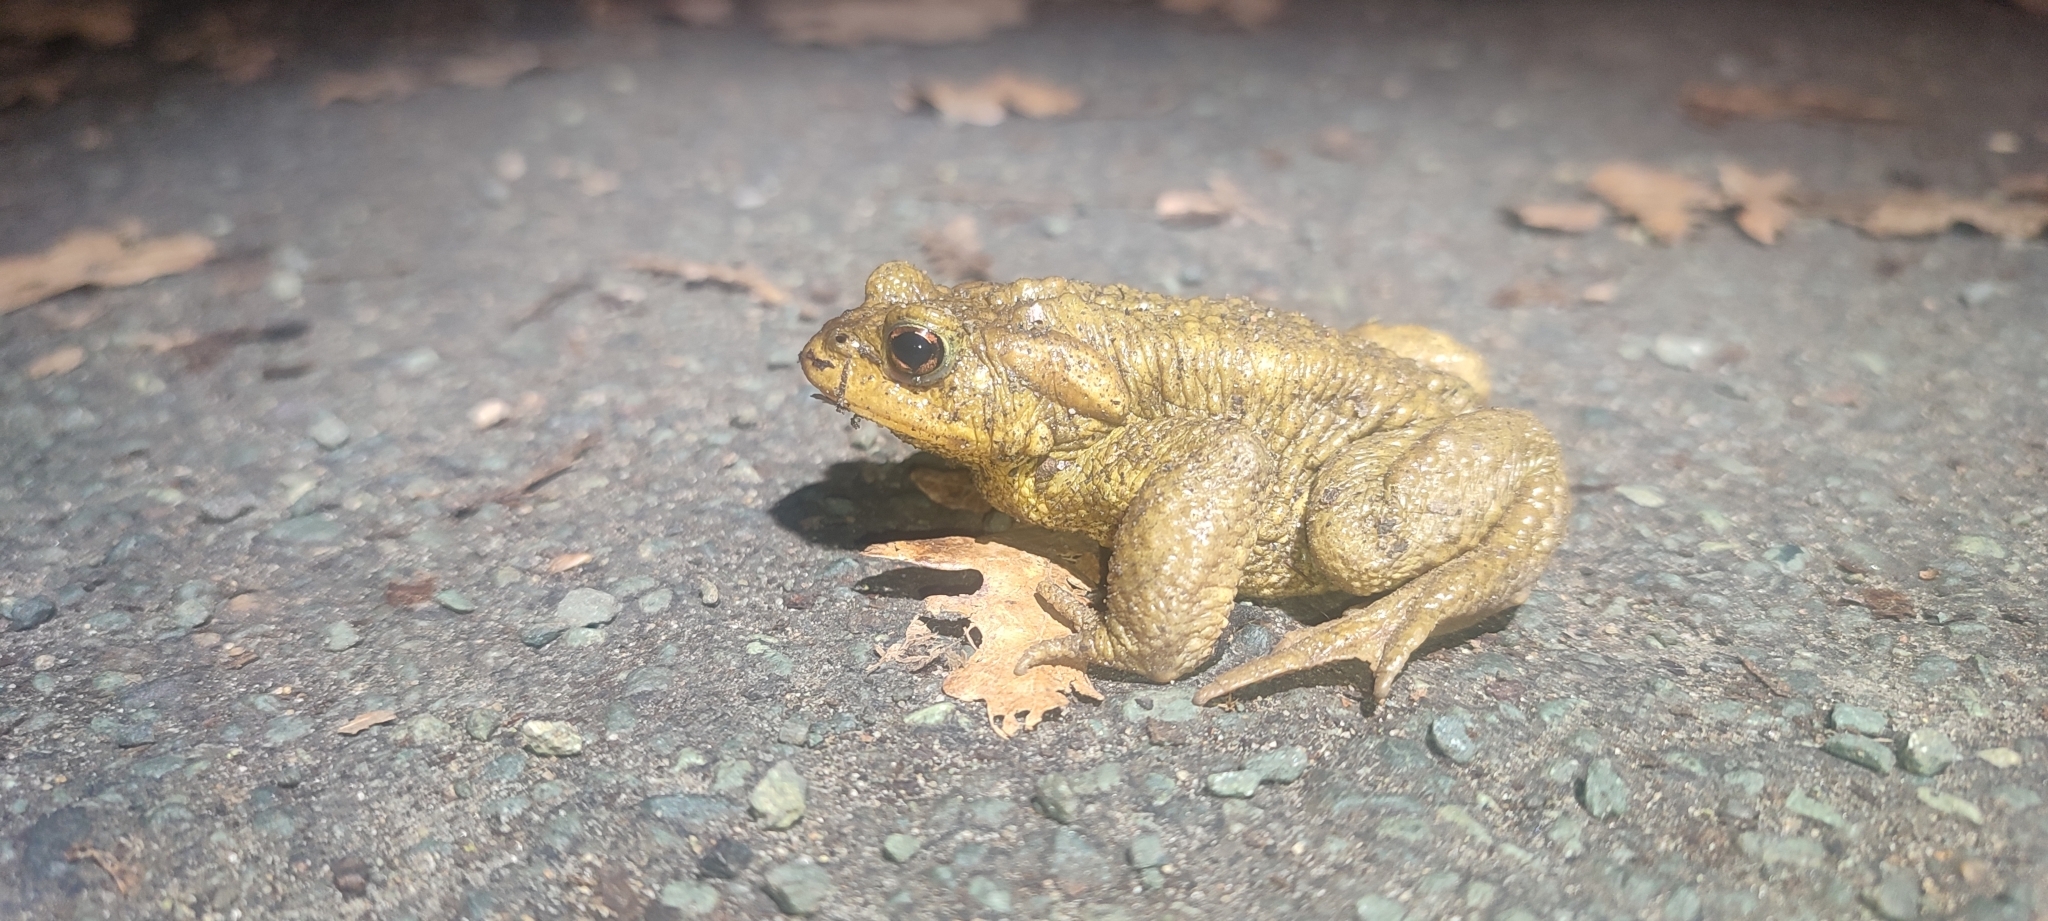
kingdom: Animalia
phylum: Chordata
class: Amphibia
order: Anura
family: Bufonidae
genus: Bufo
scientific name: Bufo spinosus
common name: Western common toad
